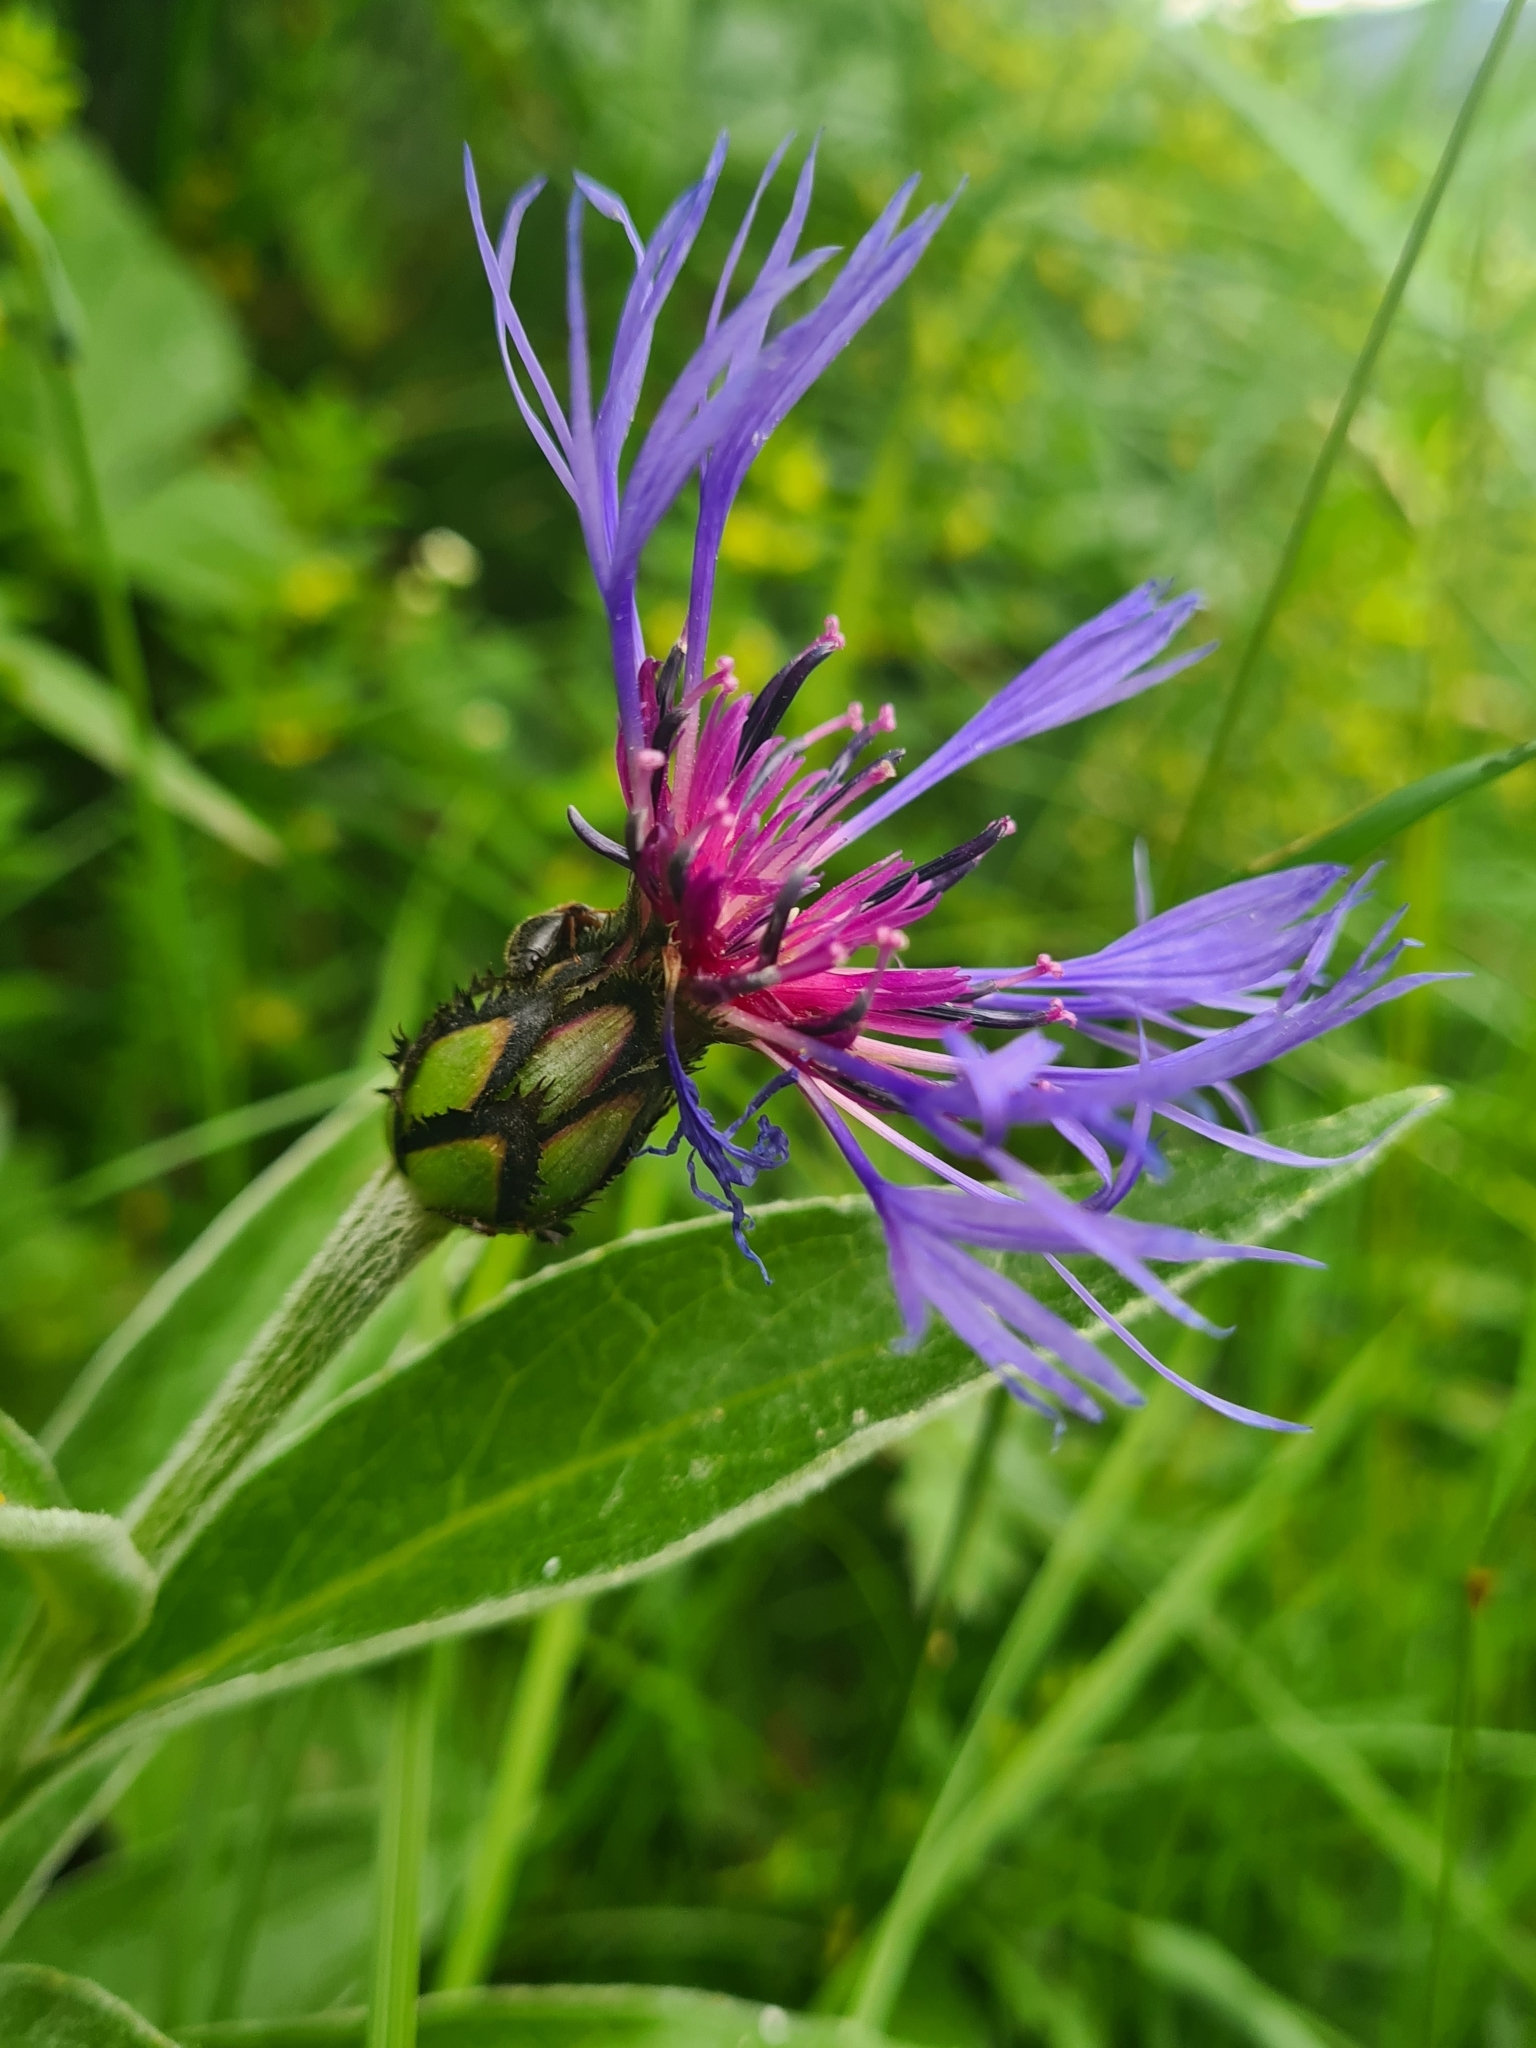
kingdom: Plantae
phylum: Tracheophyta
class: Magnoliopsida
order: Asterales
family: Asteraceae
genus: Centaurea
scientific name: Centaurea montana
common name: Perennial cornflower
